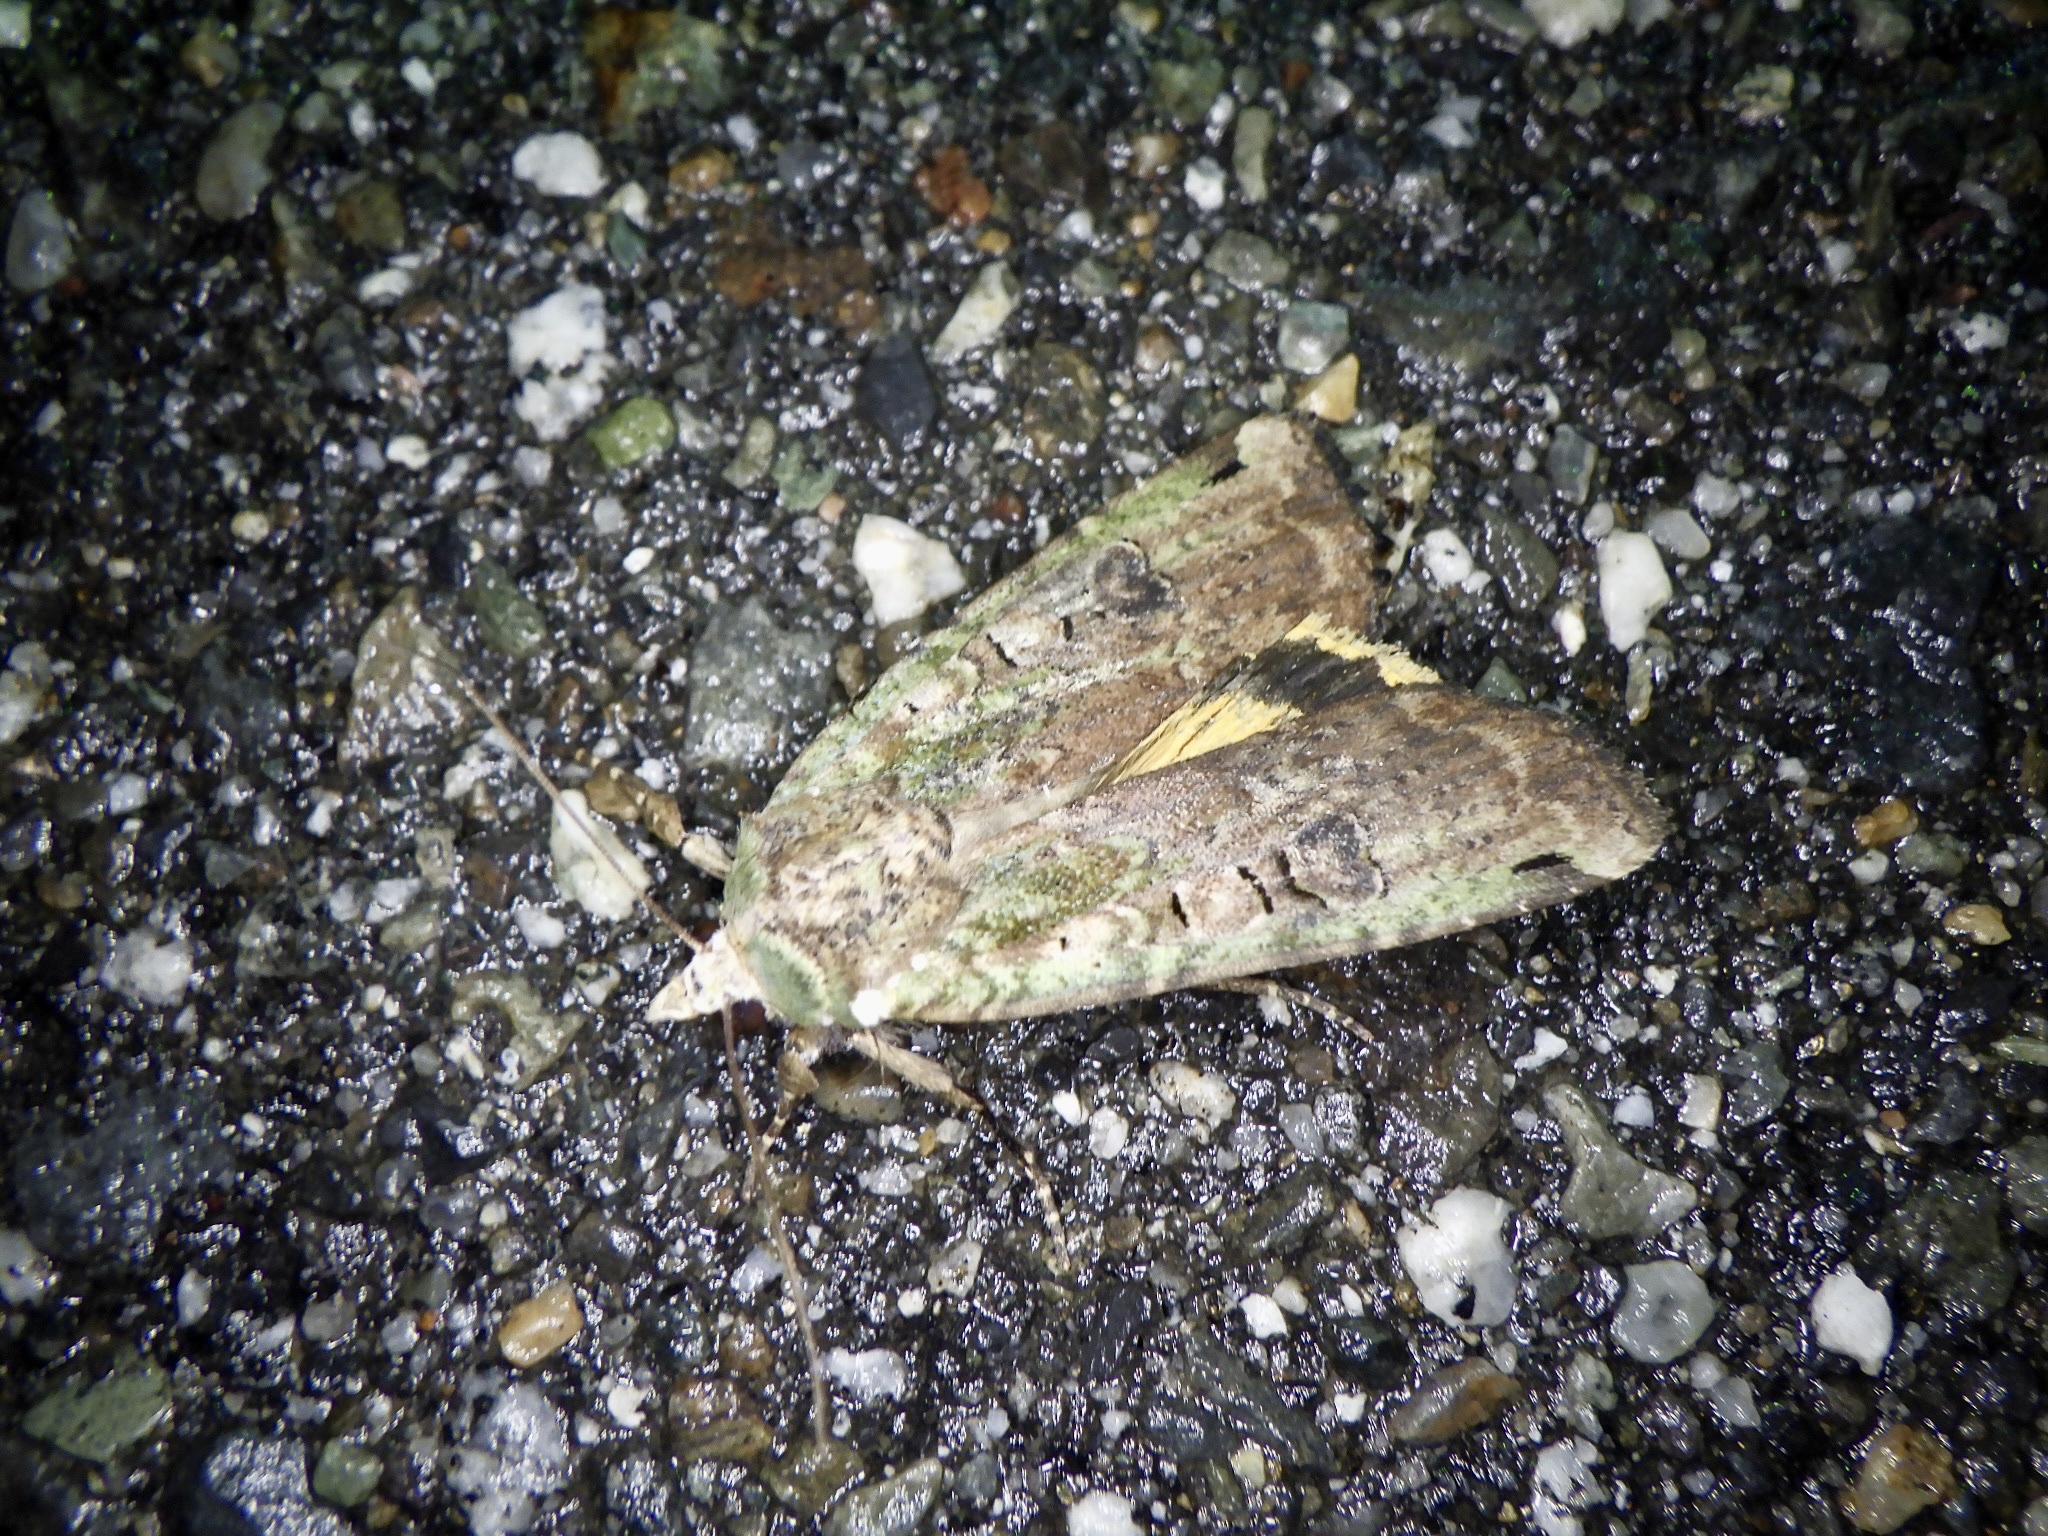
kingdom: Animalia
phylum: Arthropoda
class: Insecta
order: Lepidoptera
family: Noctuidae
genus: Xestia
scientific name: Xestia semiherbida
